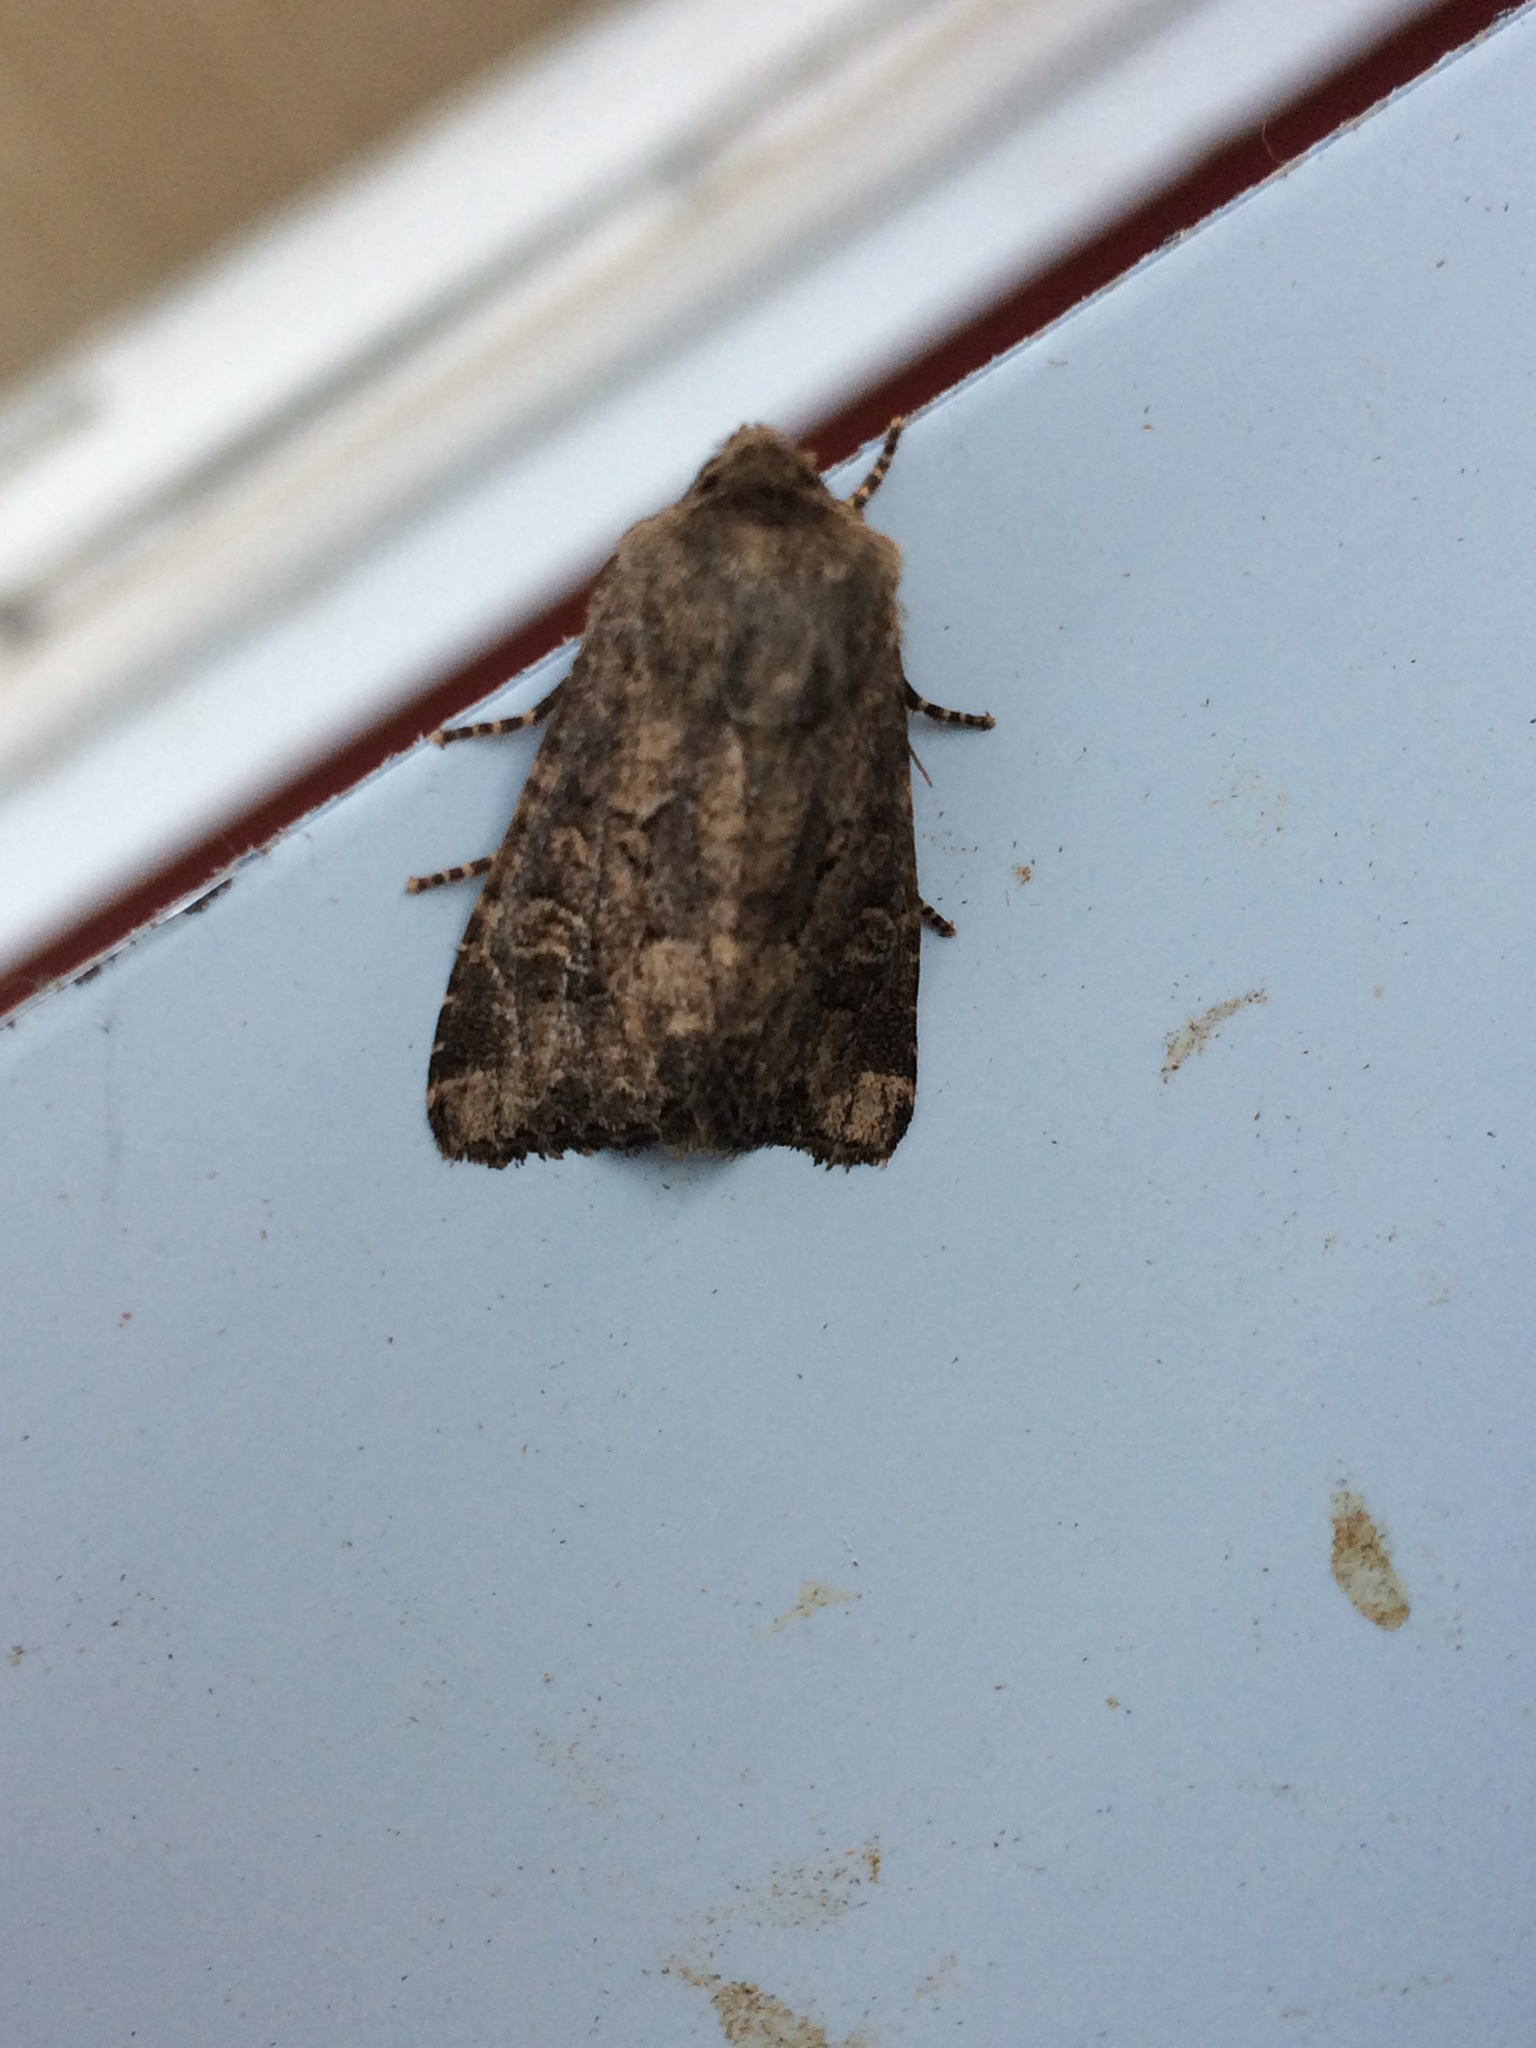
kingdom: Animalia
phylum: Arthropoda
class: Insecta
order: Lepidoptera
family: Noctuidae
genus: Luperina
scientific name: Luperina testacea
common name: Flounced rustic
